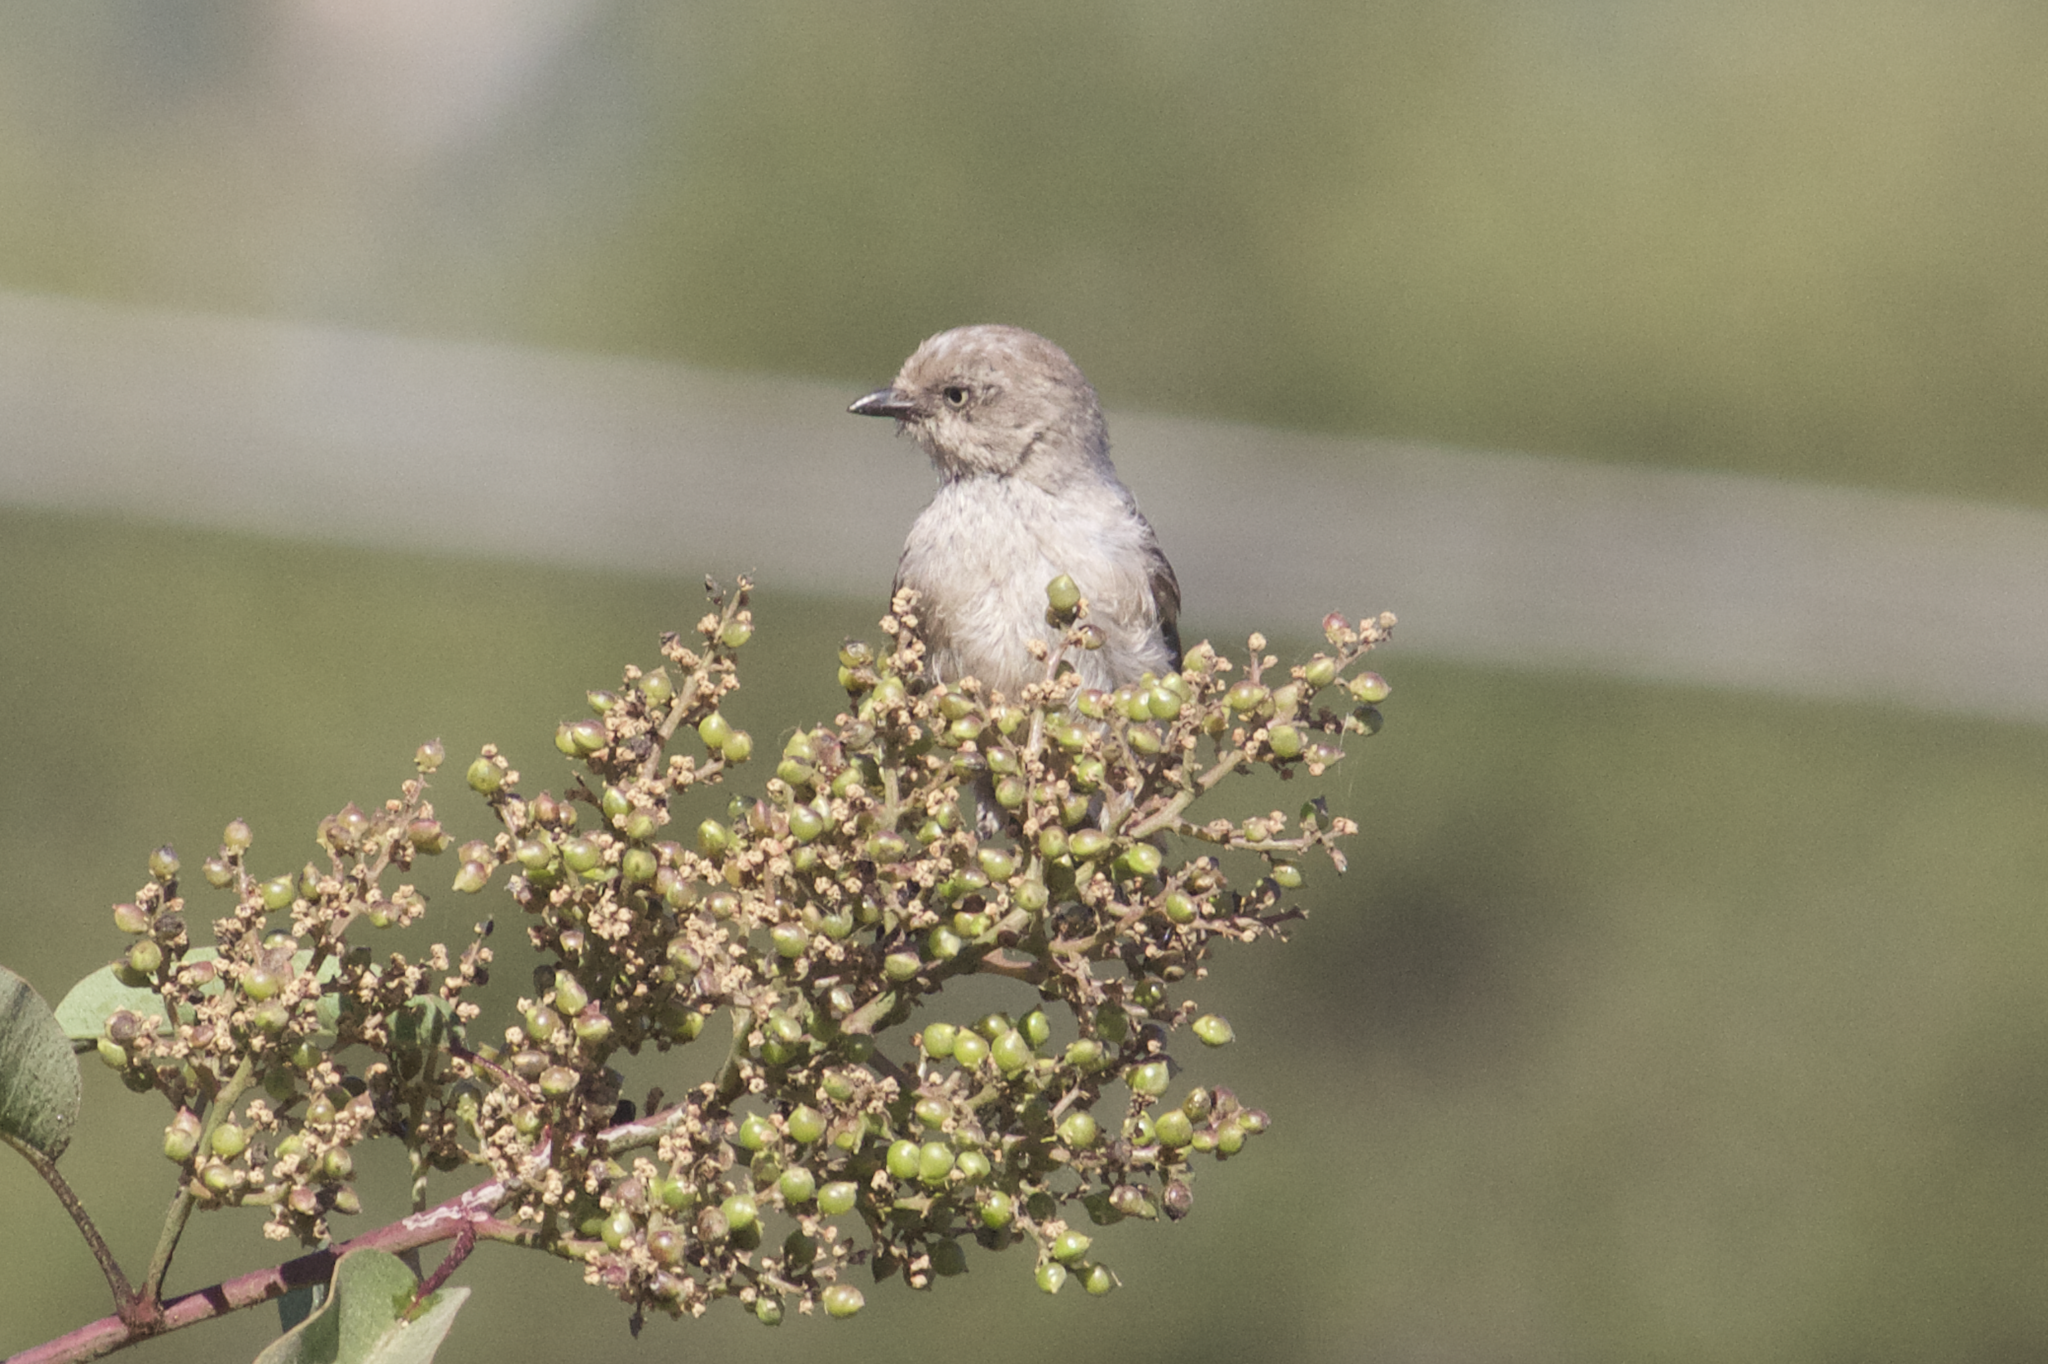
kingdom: Animalia
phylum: Chordata
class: Aves
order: Passeriformes
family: Aegithalidae
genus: Psaltriparus
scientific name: Psaltriparus minimus
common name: American bushtit
